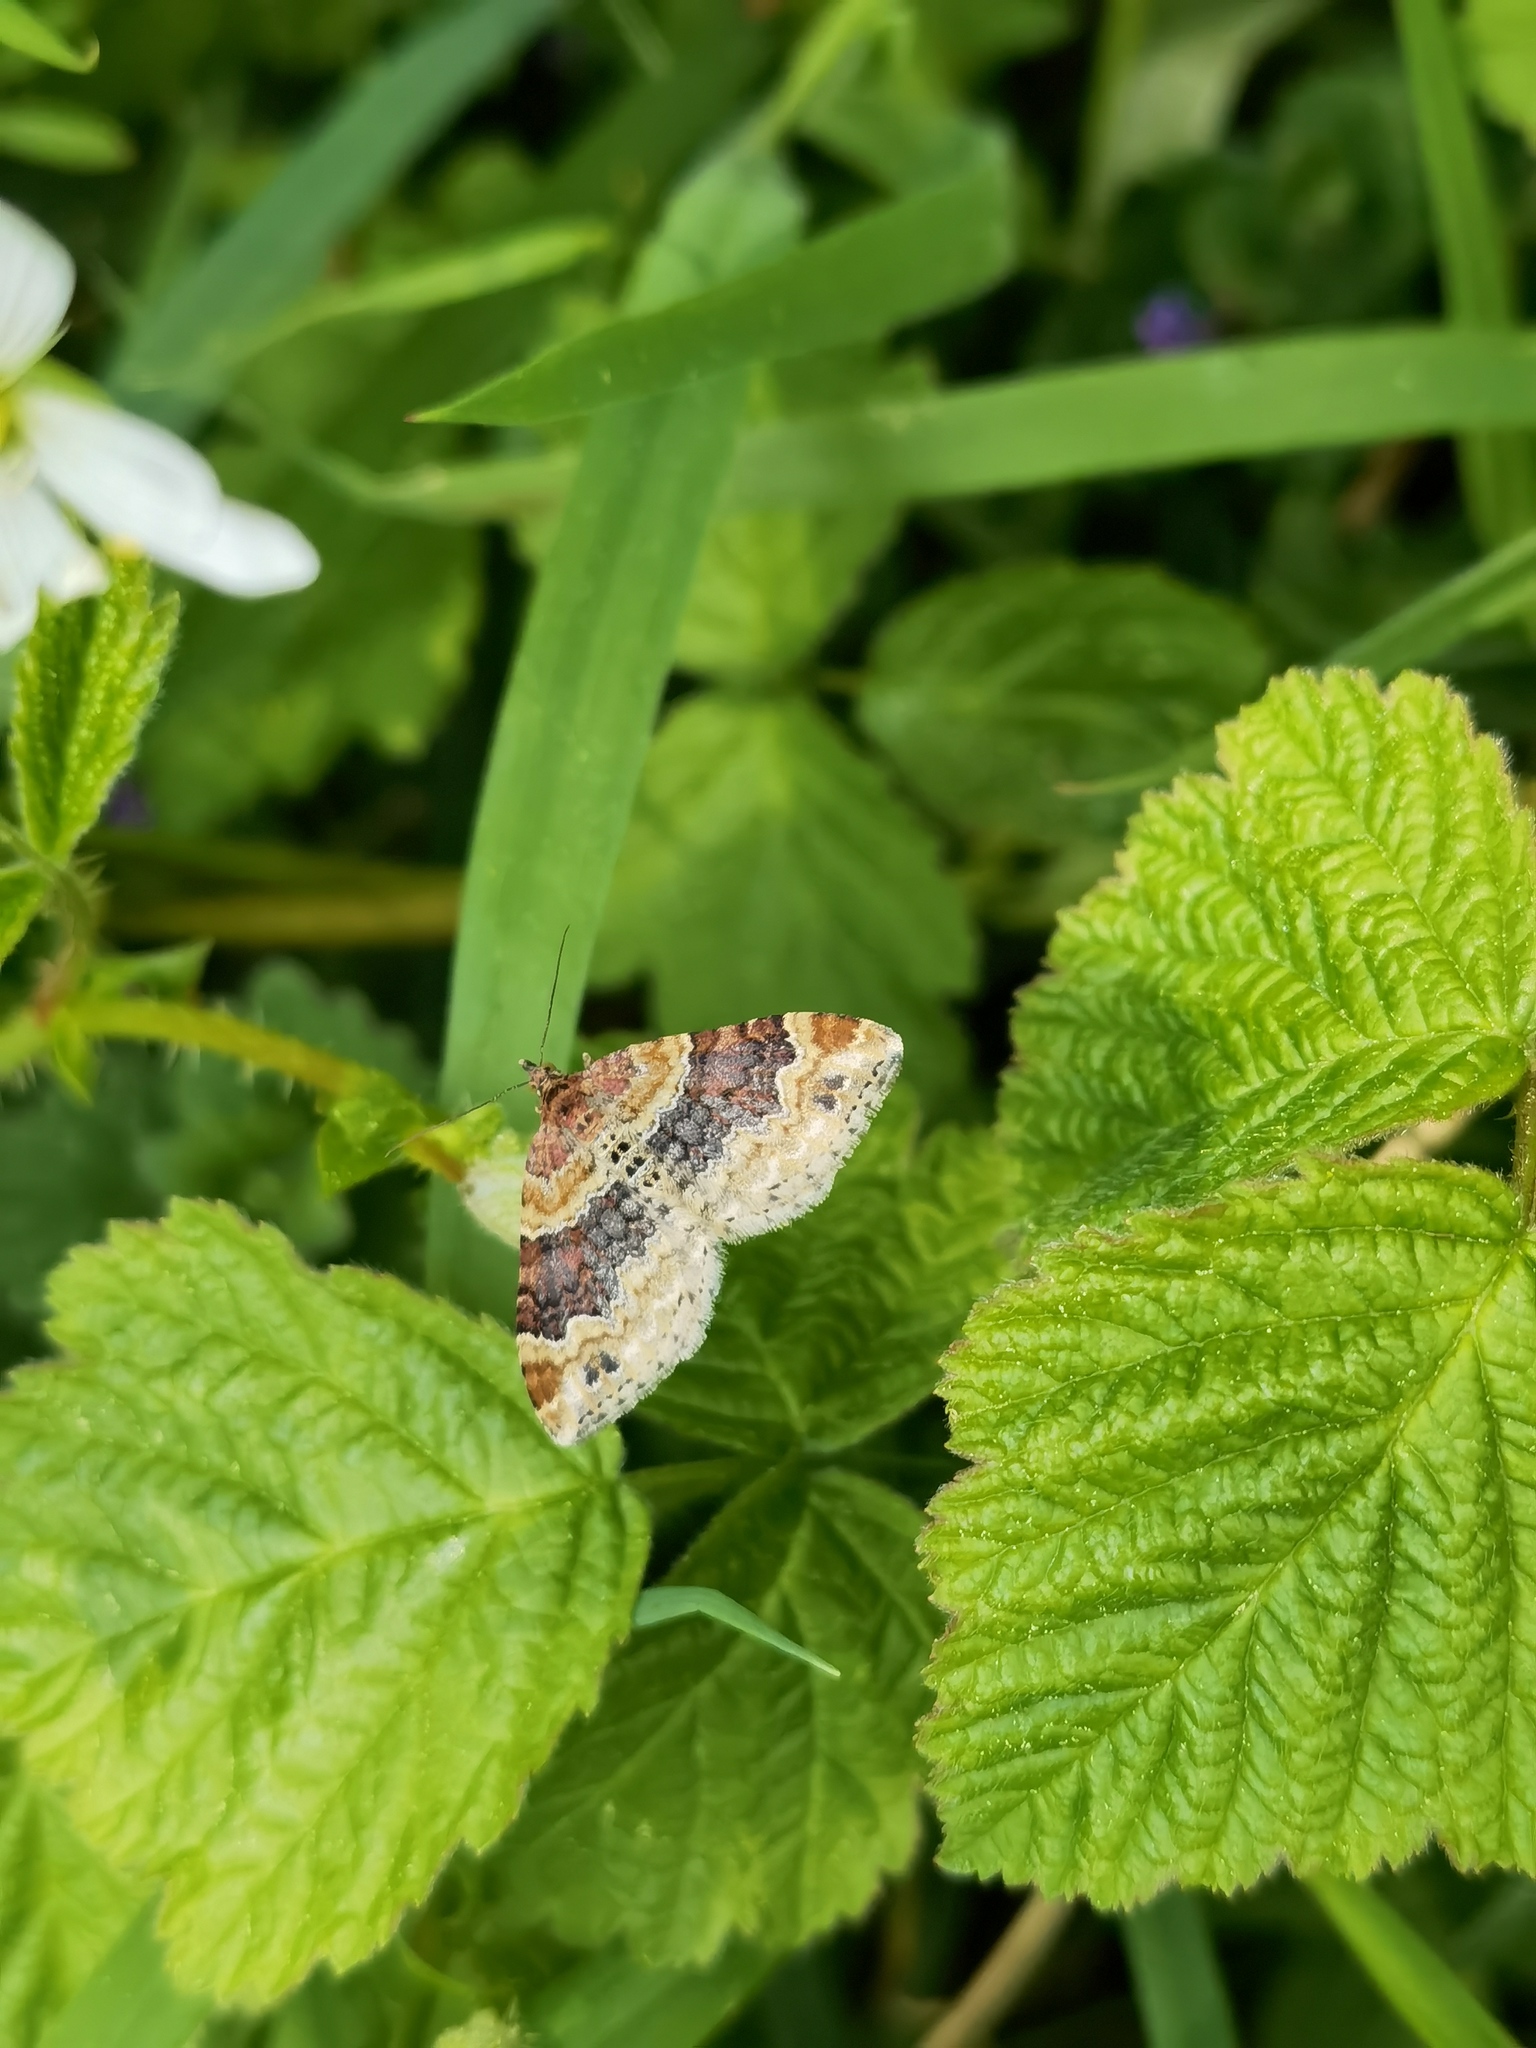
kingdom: Animalia
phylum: Arthropoda
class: Insecta
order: Lepidoptera
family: Geometridae
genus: Xanthorhoe
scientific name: Xanthorhoe spadicearia
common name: Red twin-spot carpet
